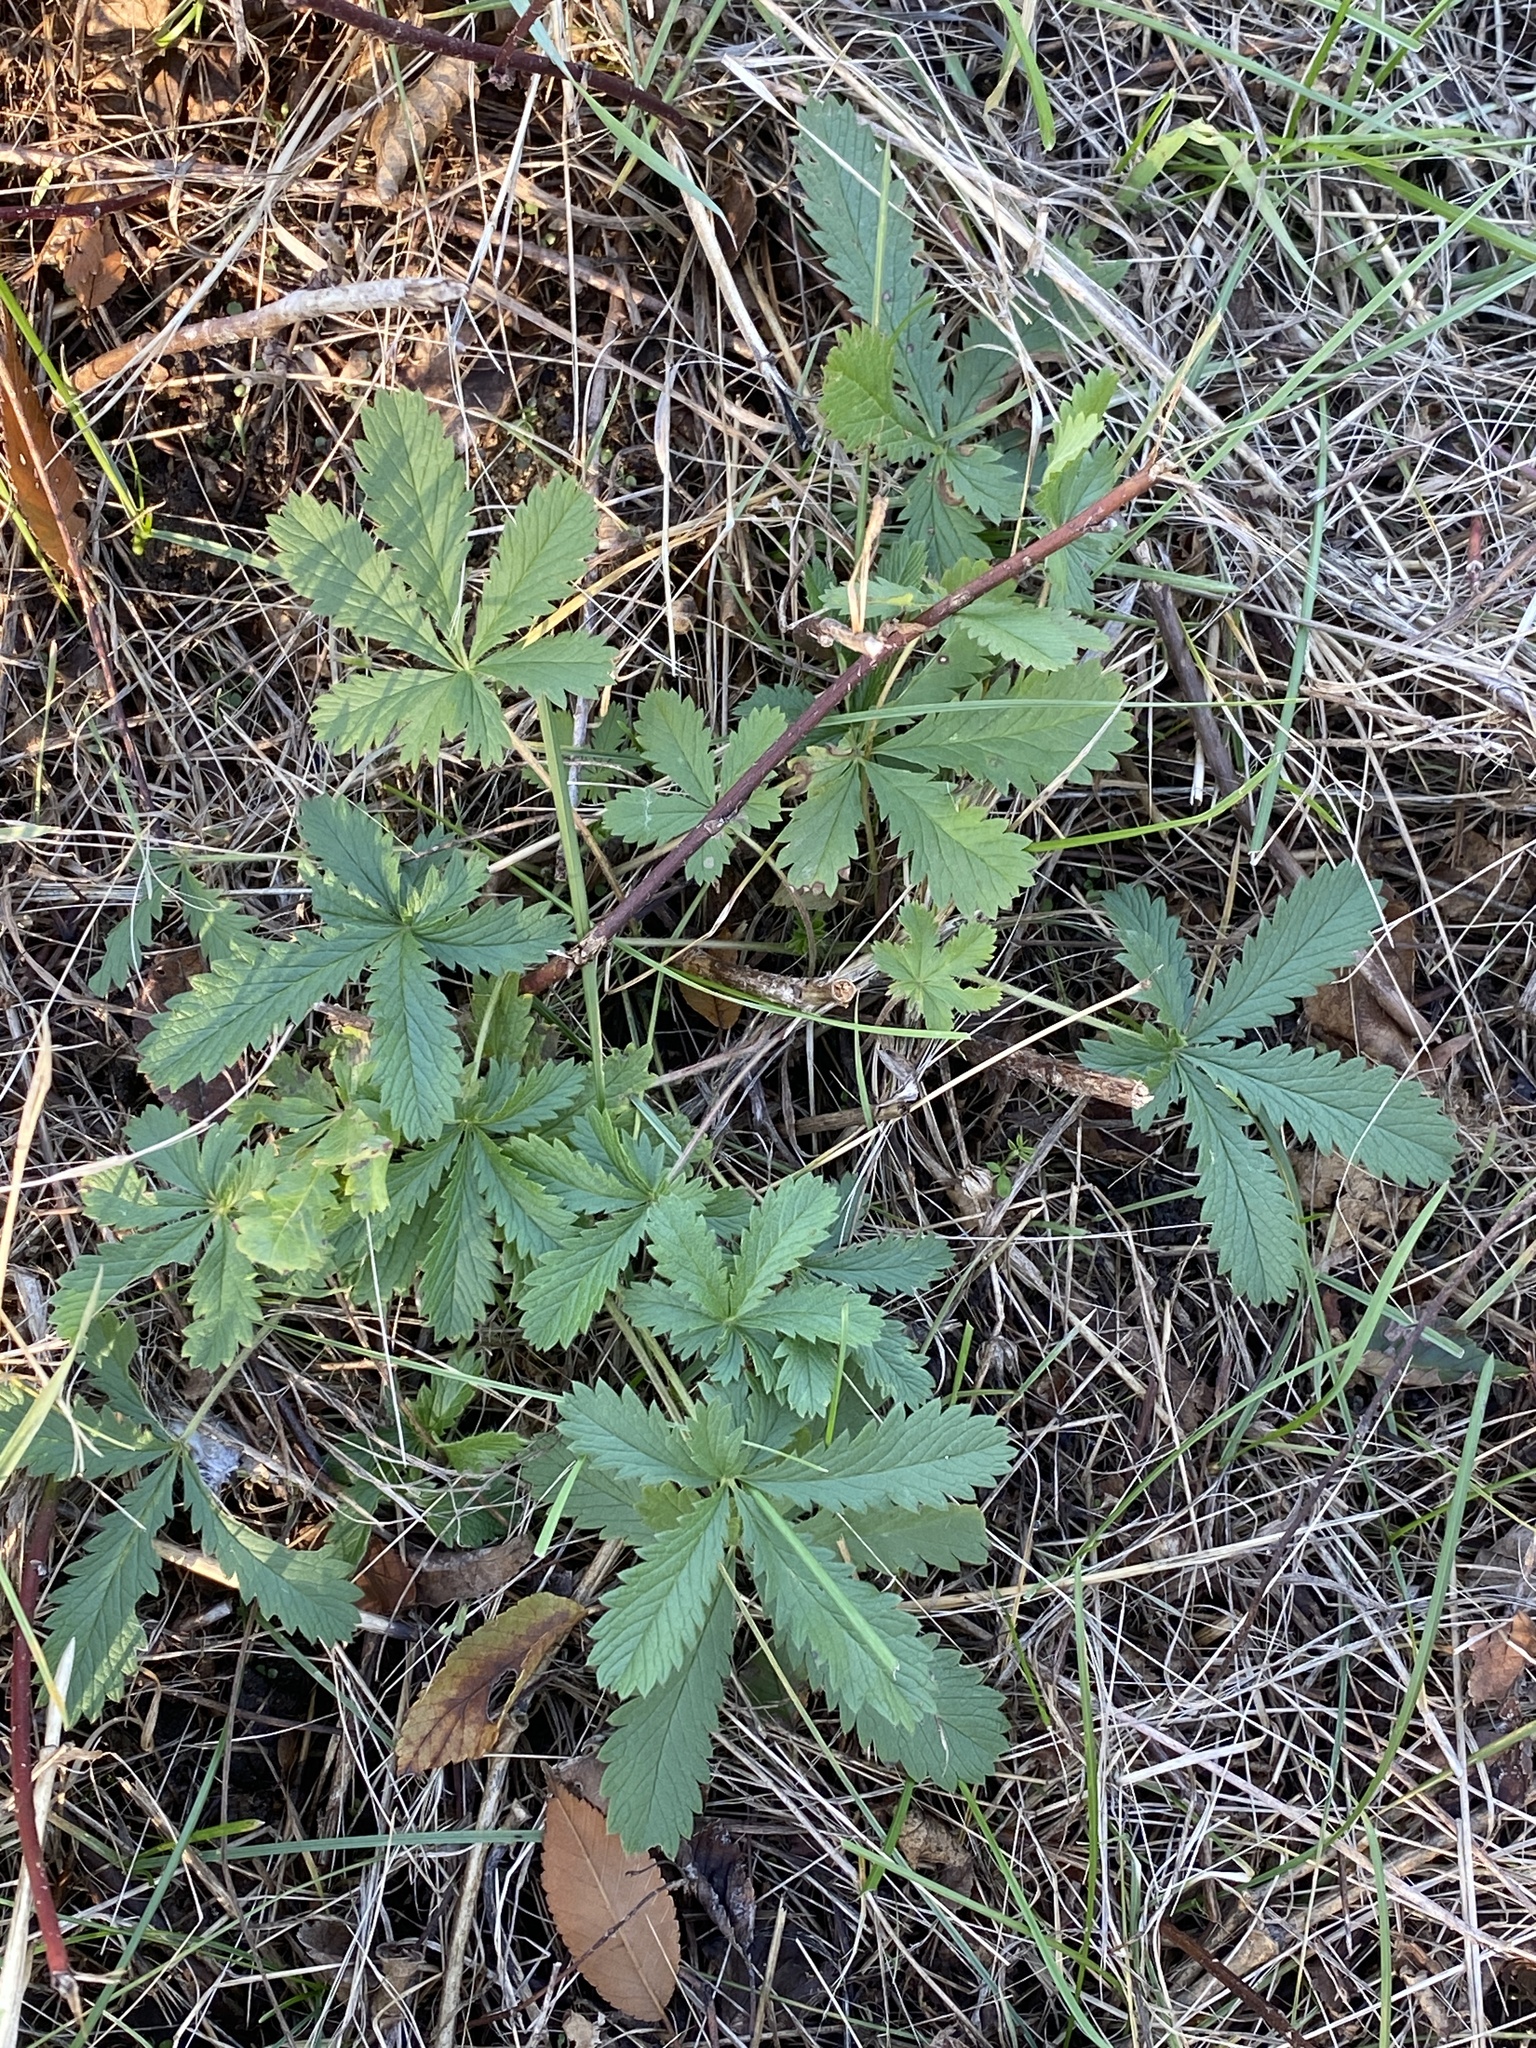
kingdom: Plantae
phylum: Tracheophyta
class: Magnoliopsida
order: Rosales
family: Rosaceae
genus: Potentilla
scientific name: Potentilla recta
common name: Sulphur cinquefoil
